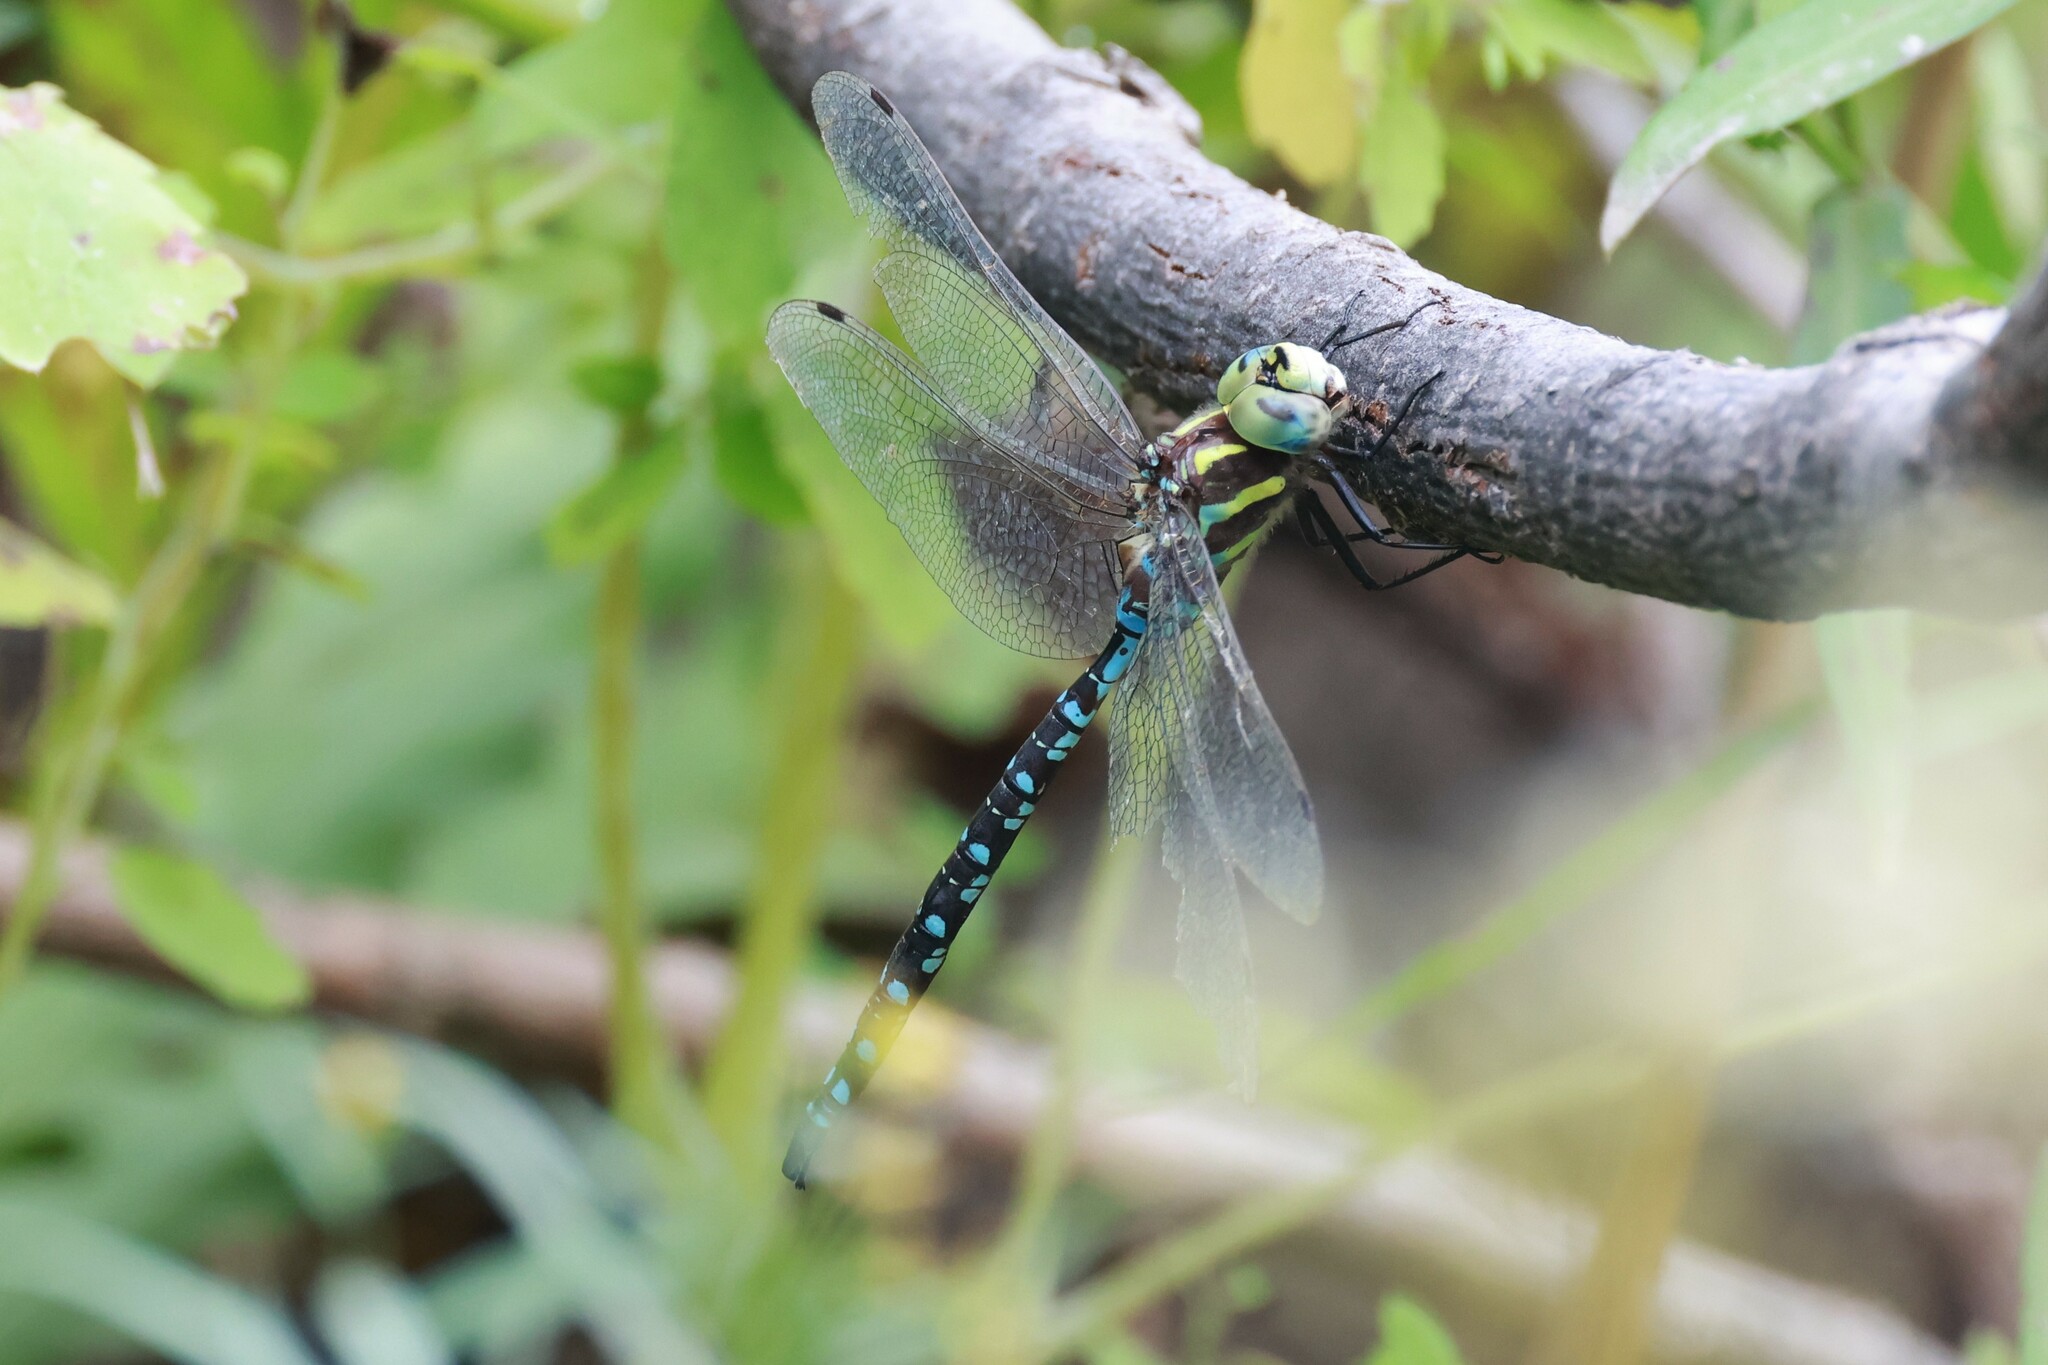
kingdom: Animalia
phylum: Arthropoda
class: Insecta
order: Odonata
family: Aeshnidae
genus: Aeshna
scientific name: Aeshna constricta
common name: Lance-tipped darner
